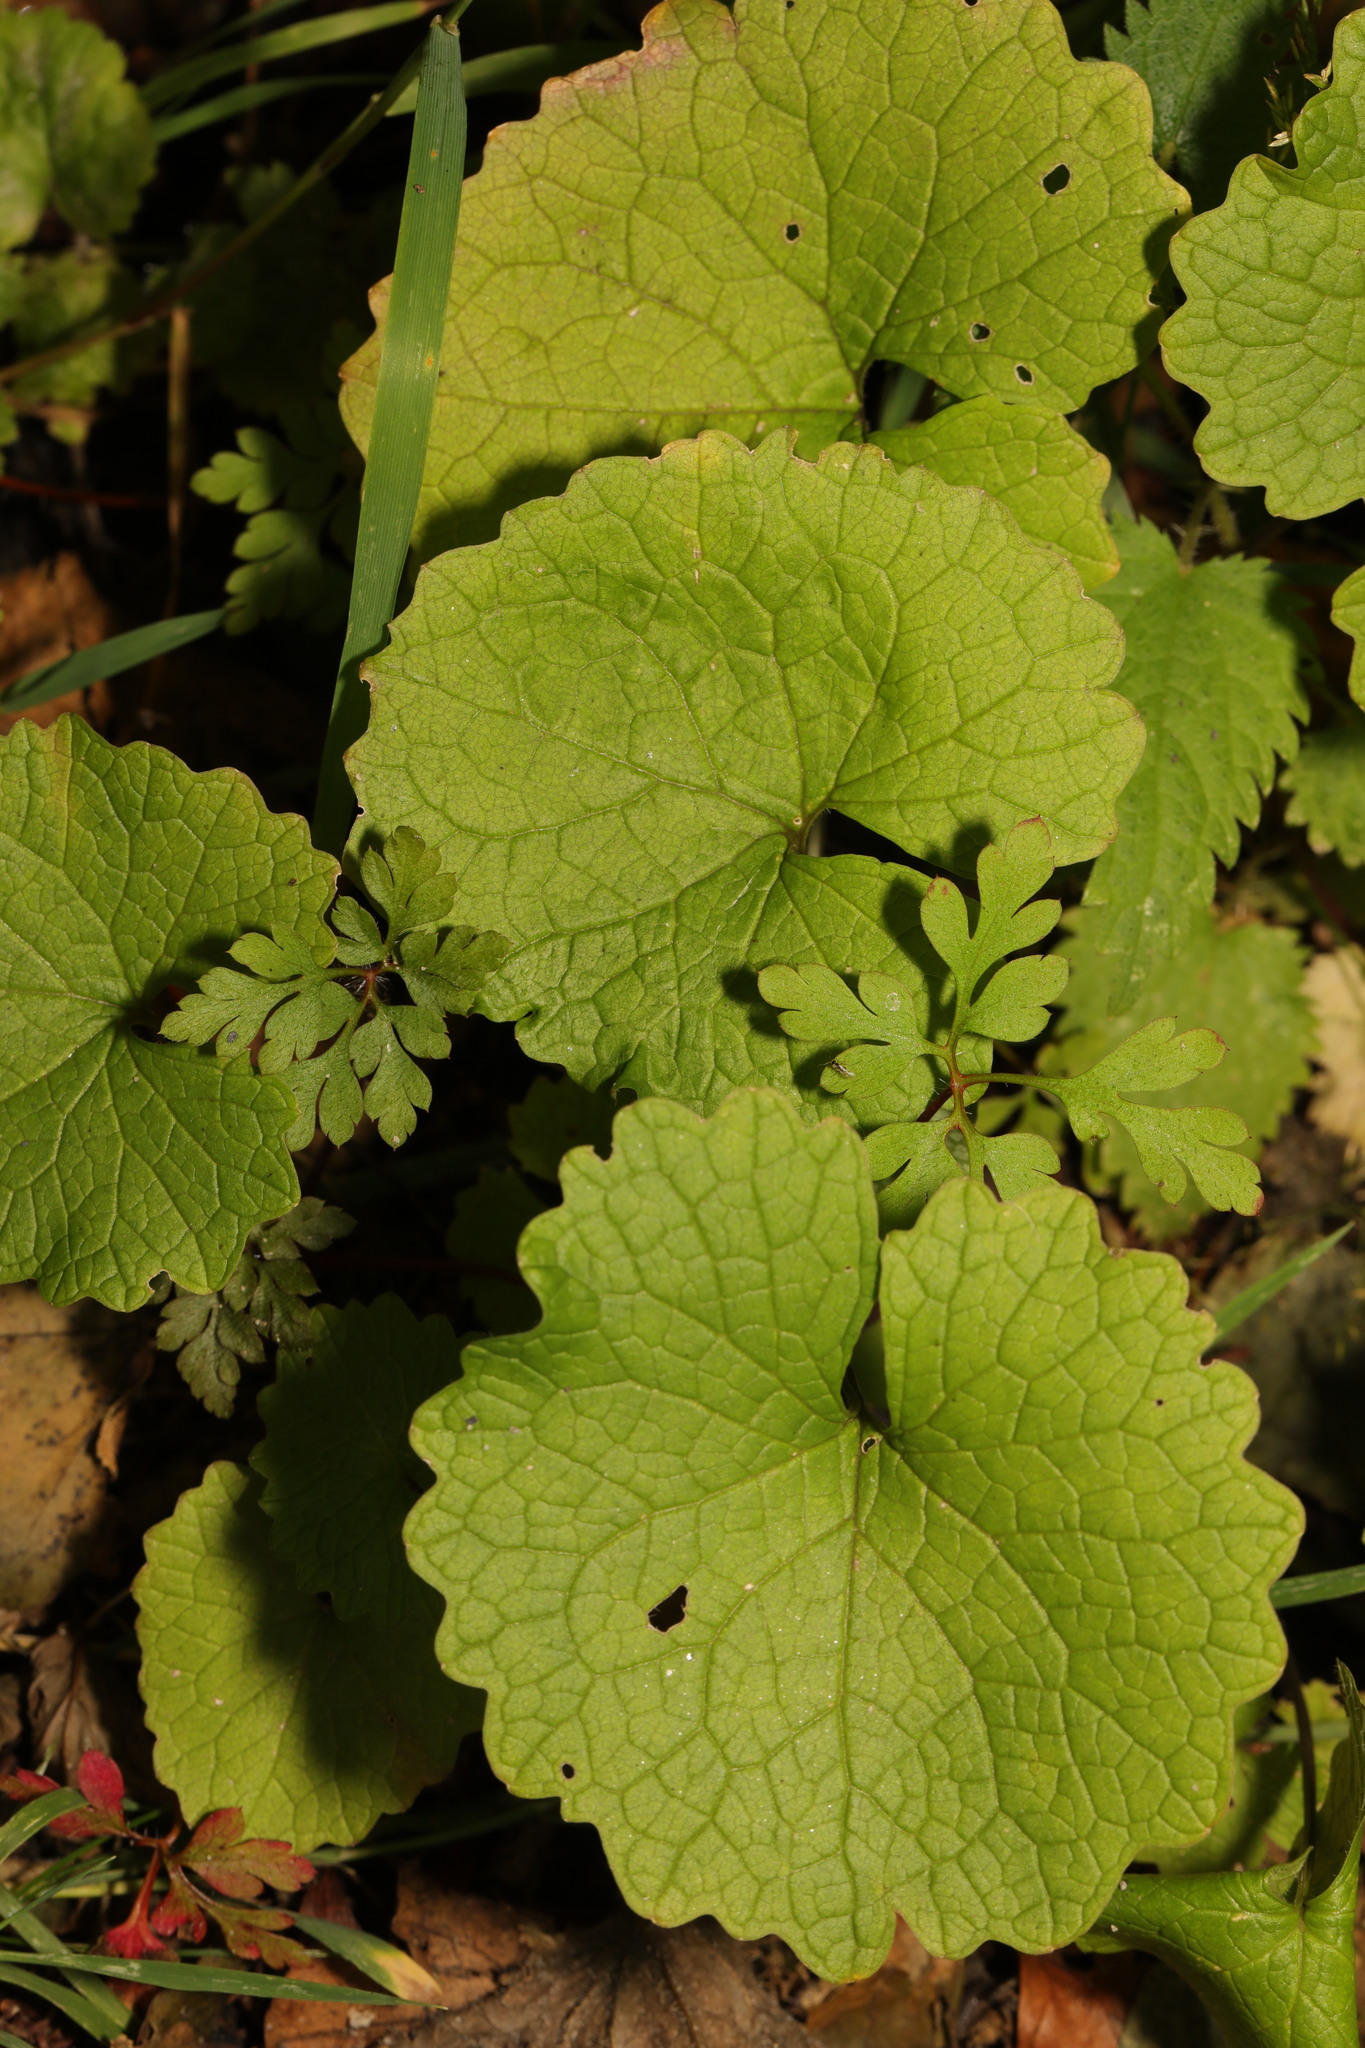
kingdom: Plantae
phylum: Tracheophyta
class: Magnoliopsida
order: Brassicales
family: Brassicaceae
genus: Alliaria
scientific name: Alliaria petiolata
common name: Garlic mustard
